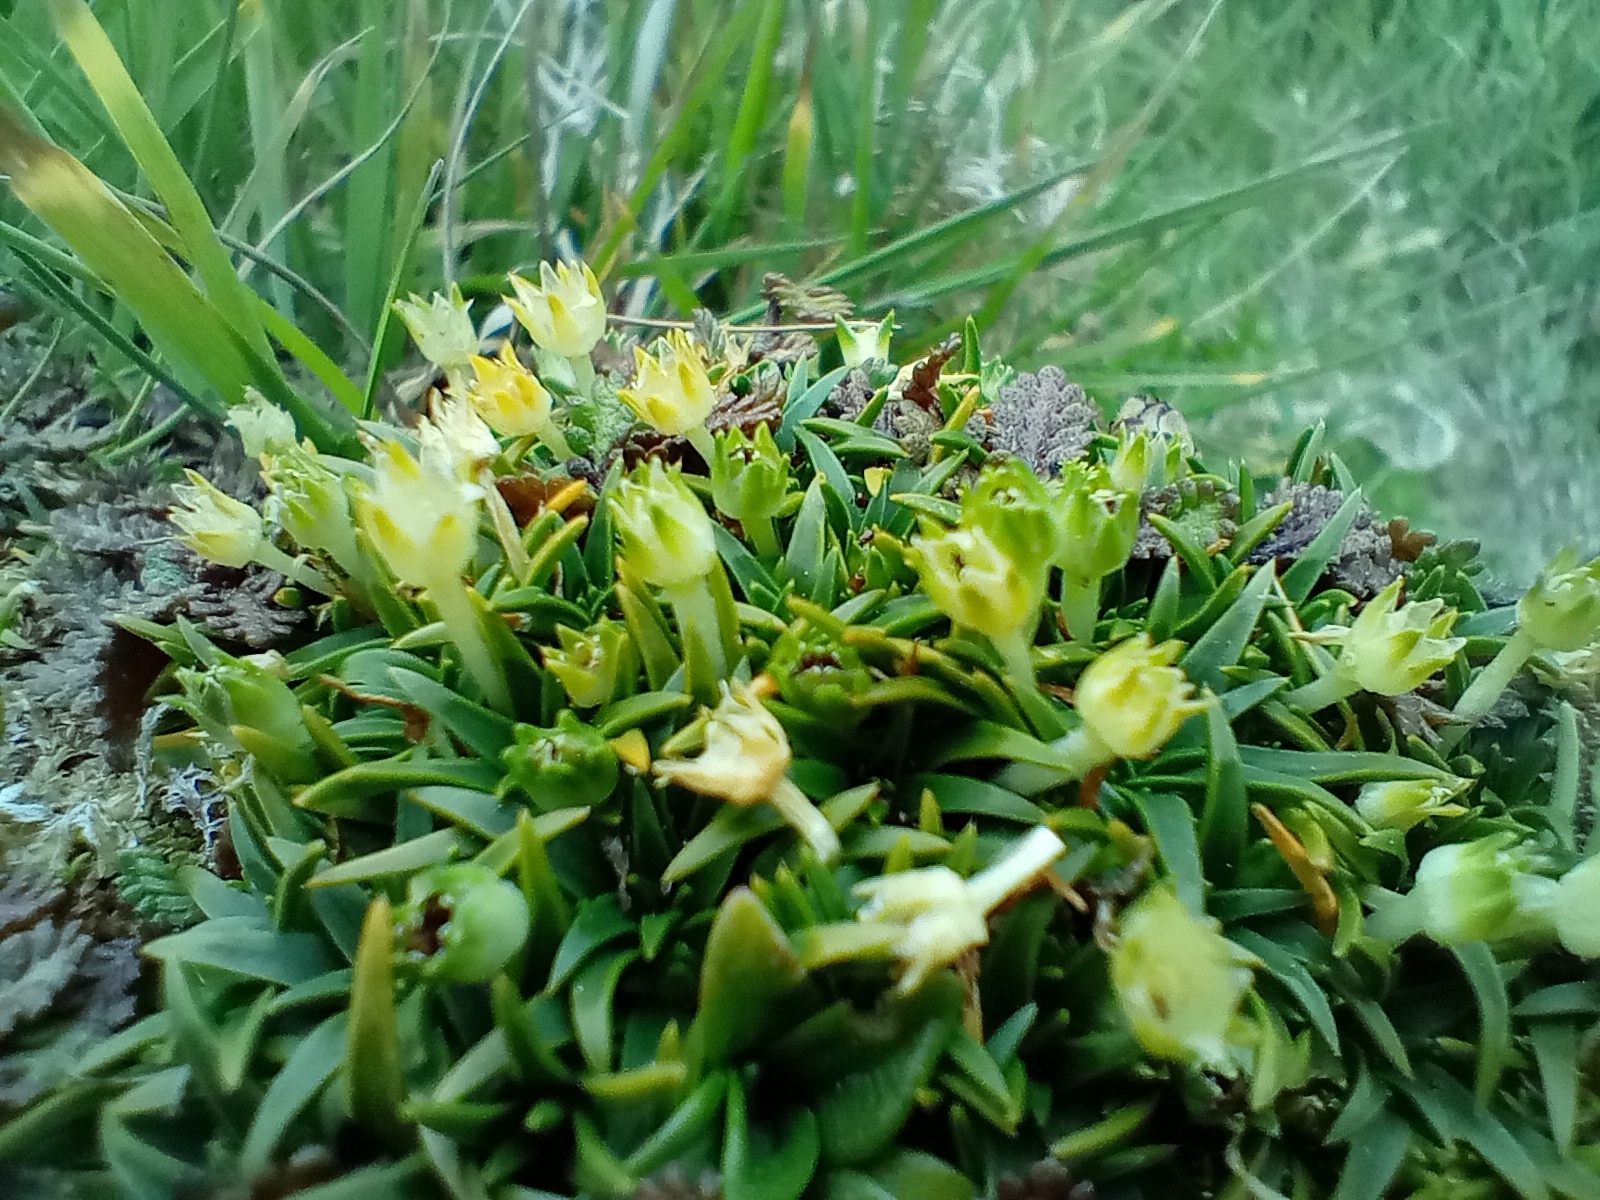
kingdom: Plantae
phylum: Tracheophyta
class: Magnoliopsida
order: Caryophyllales
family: Caryophyllaceae
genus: Colobanthus
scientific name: Colobanthus muelleri
